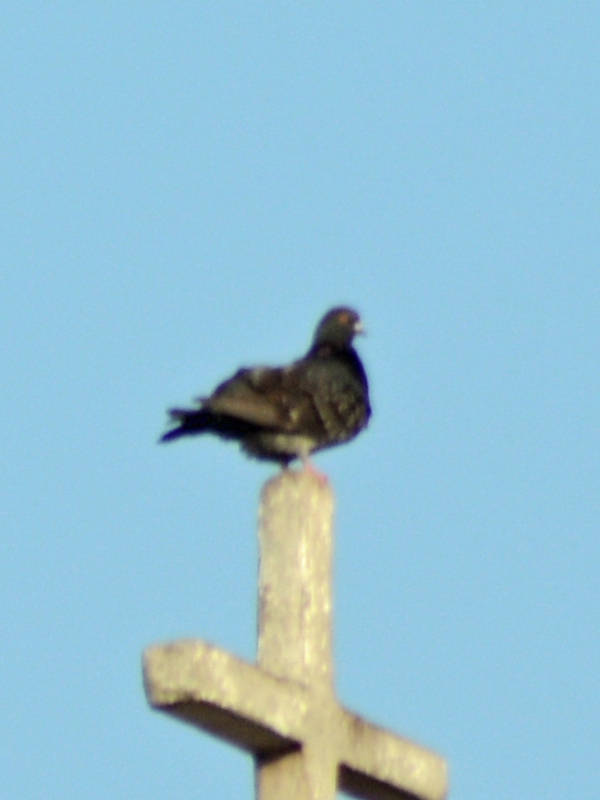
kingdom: Animalia
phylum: Chordata
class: Aves
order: Columbiformes
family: Columbidae
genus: Columba
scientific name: Columba livia
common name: Rock pigeon
